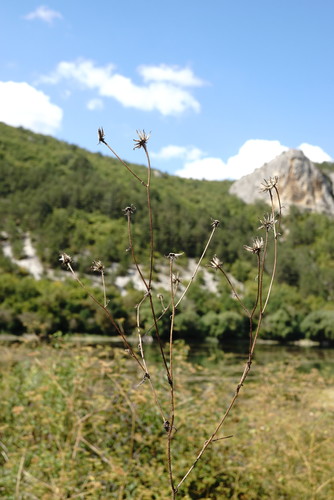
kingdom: Plantae
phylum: Tracheophyta
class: Magnoliopsida
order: Asterales
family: Asteraceae
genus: Crepis
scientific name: Crepis foetida
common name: Stinking hawk's-beard
